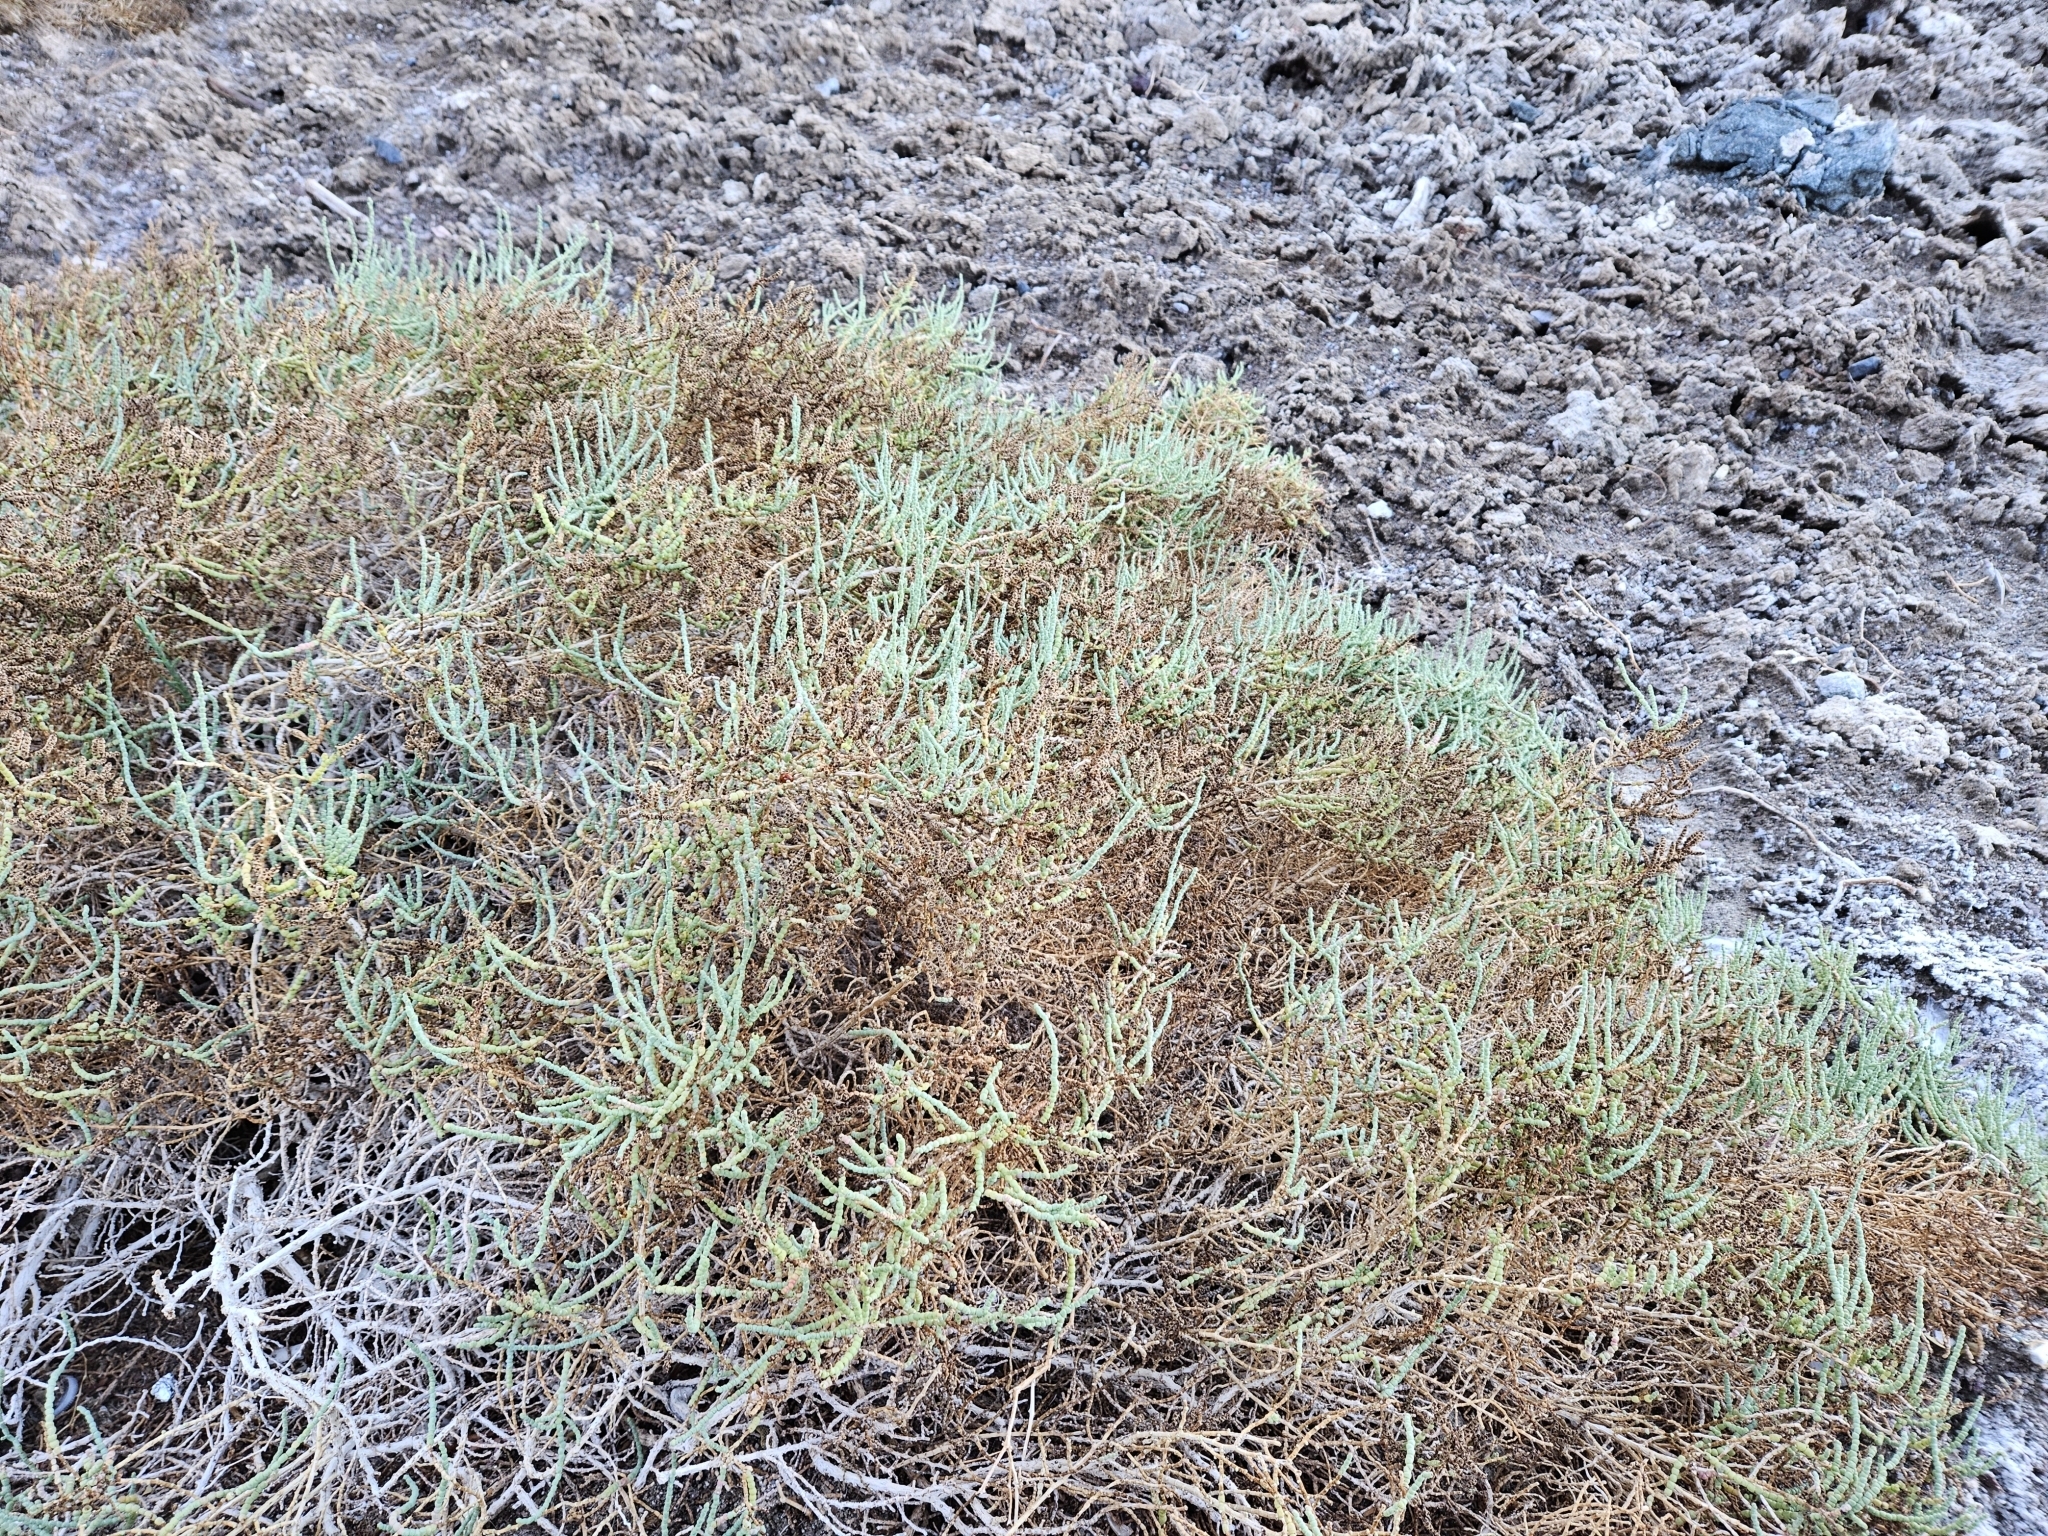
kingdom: Plantae
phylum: Tracheophyta
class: Magnoliopsida
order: Caryophyllales
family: Amaranthaceae
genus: Allenrolfea
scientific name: Allenrolfea occidentalis
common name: Iodine-bush
